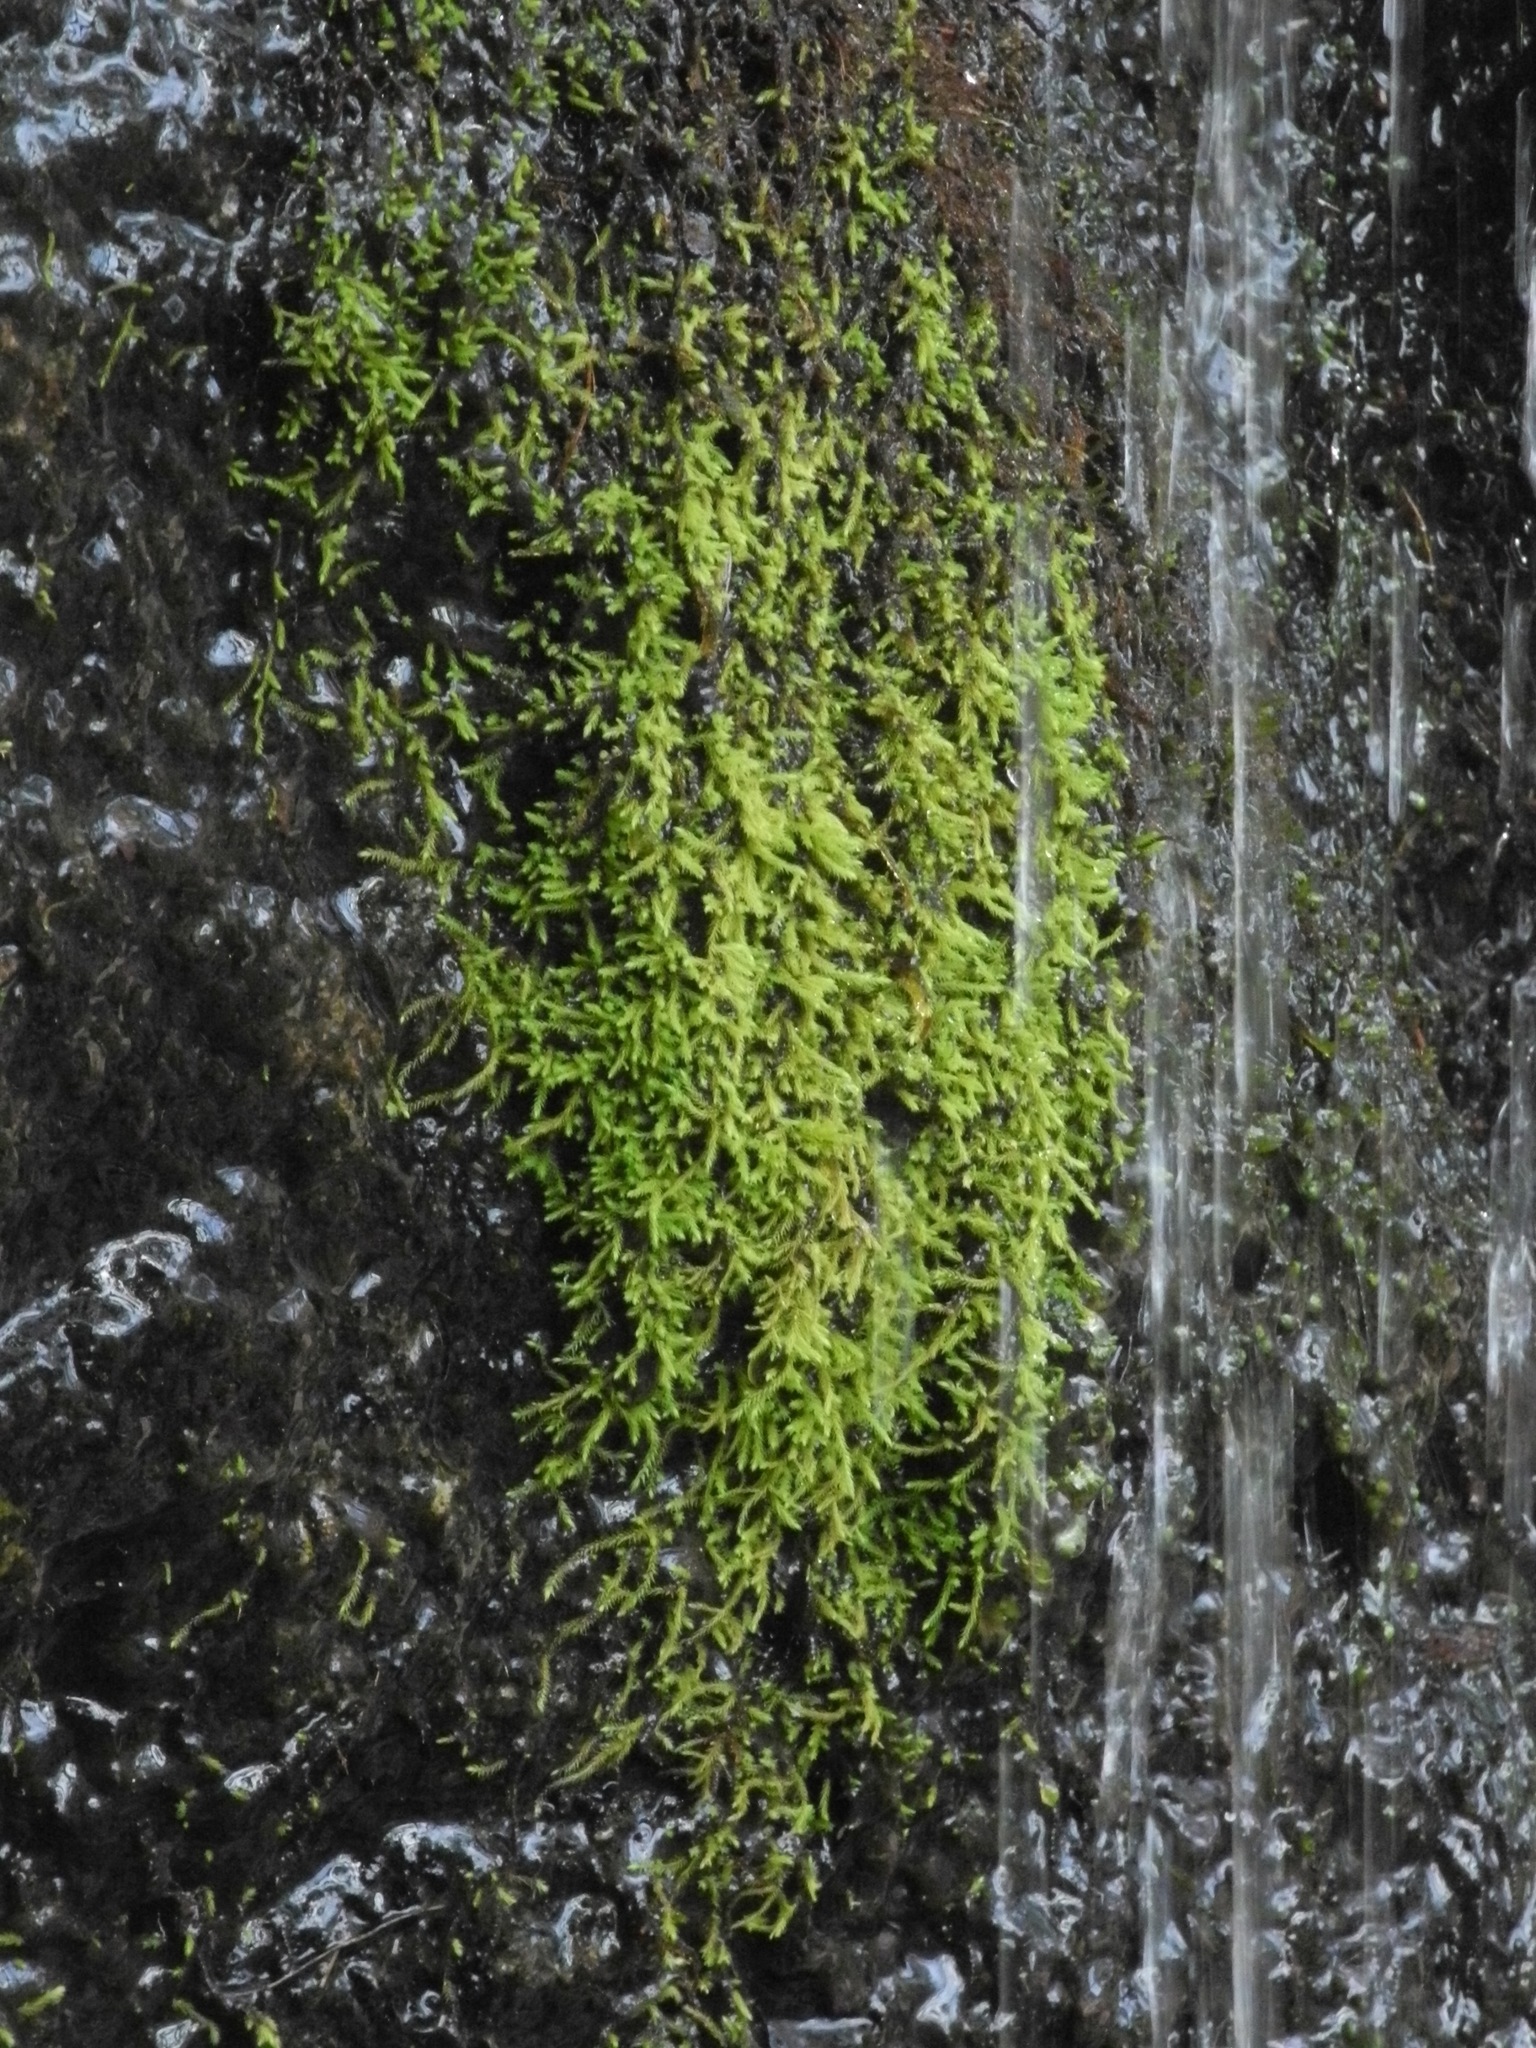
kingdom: Plantae
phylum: Bryophyta
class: Bryopsida
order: Bartramiales
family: Bartramiaceae
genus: Philonotis
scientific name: Philonotis capillaris
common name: Arnell's apple-moss
